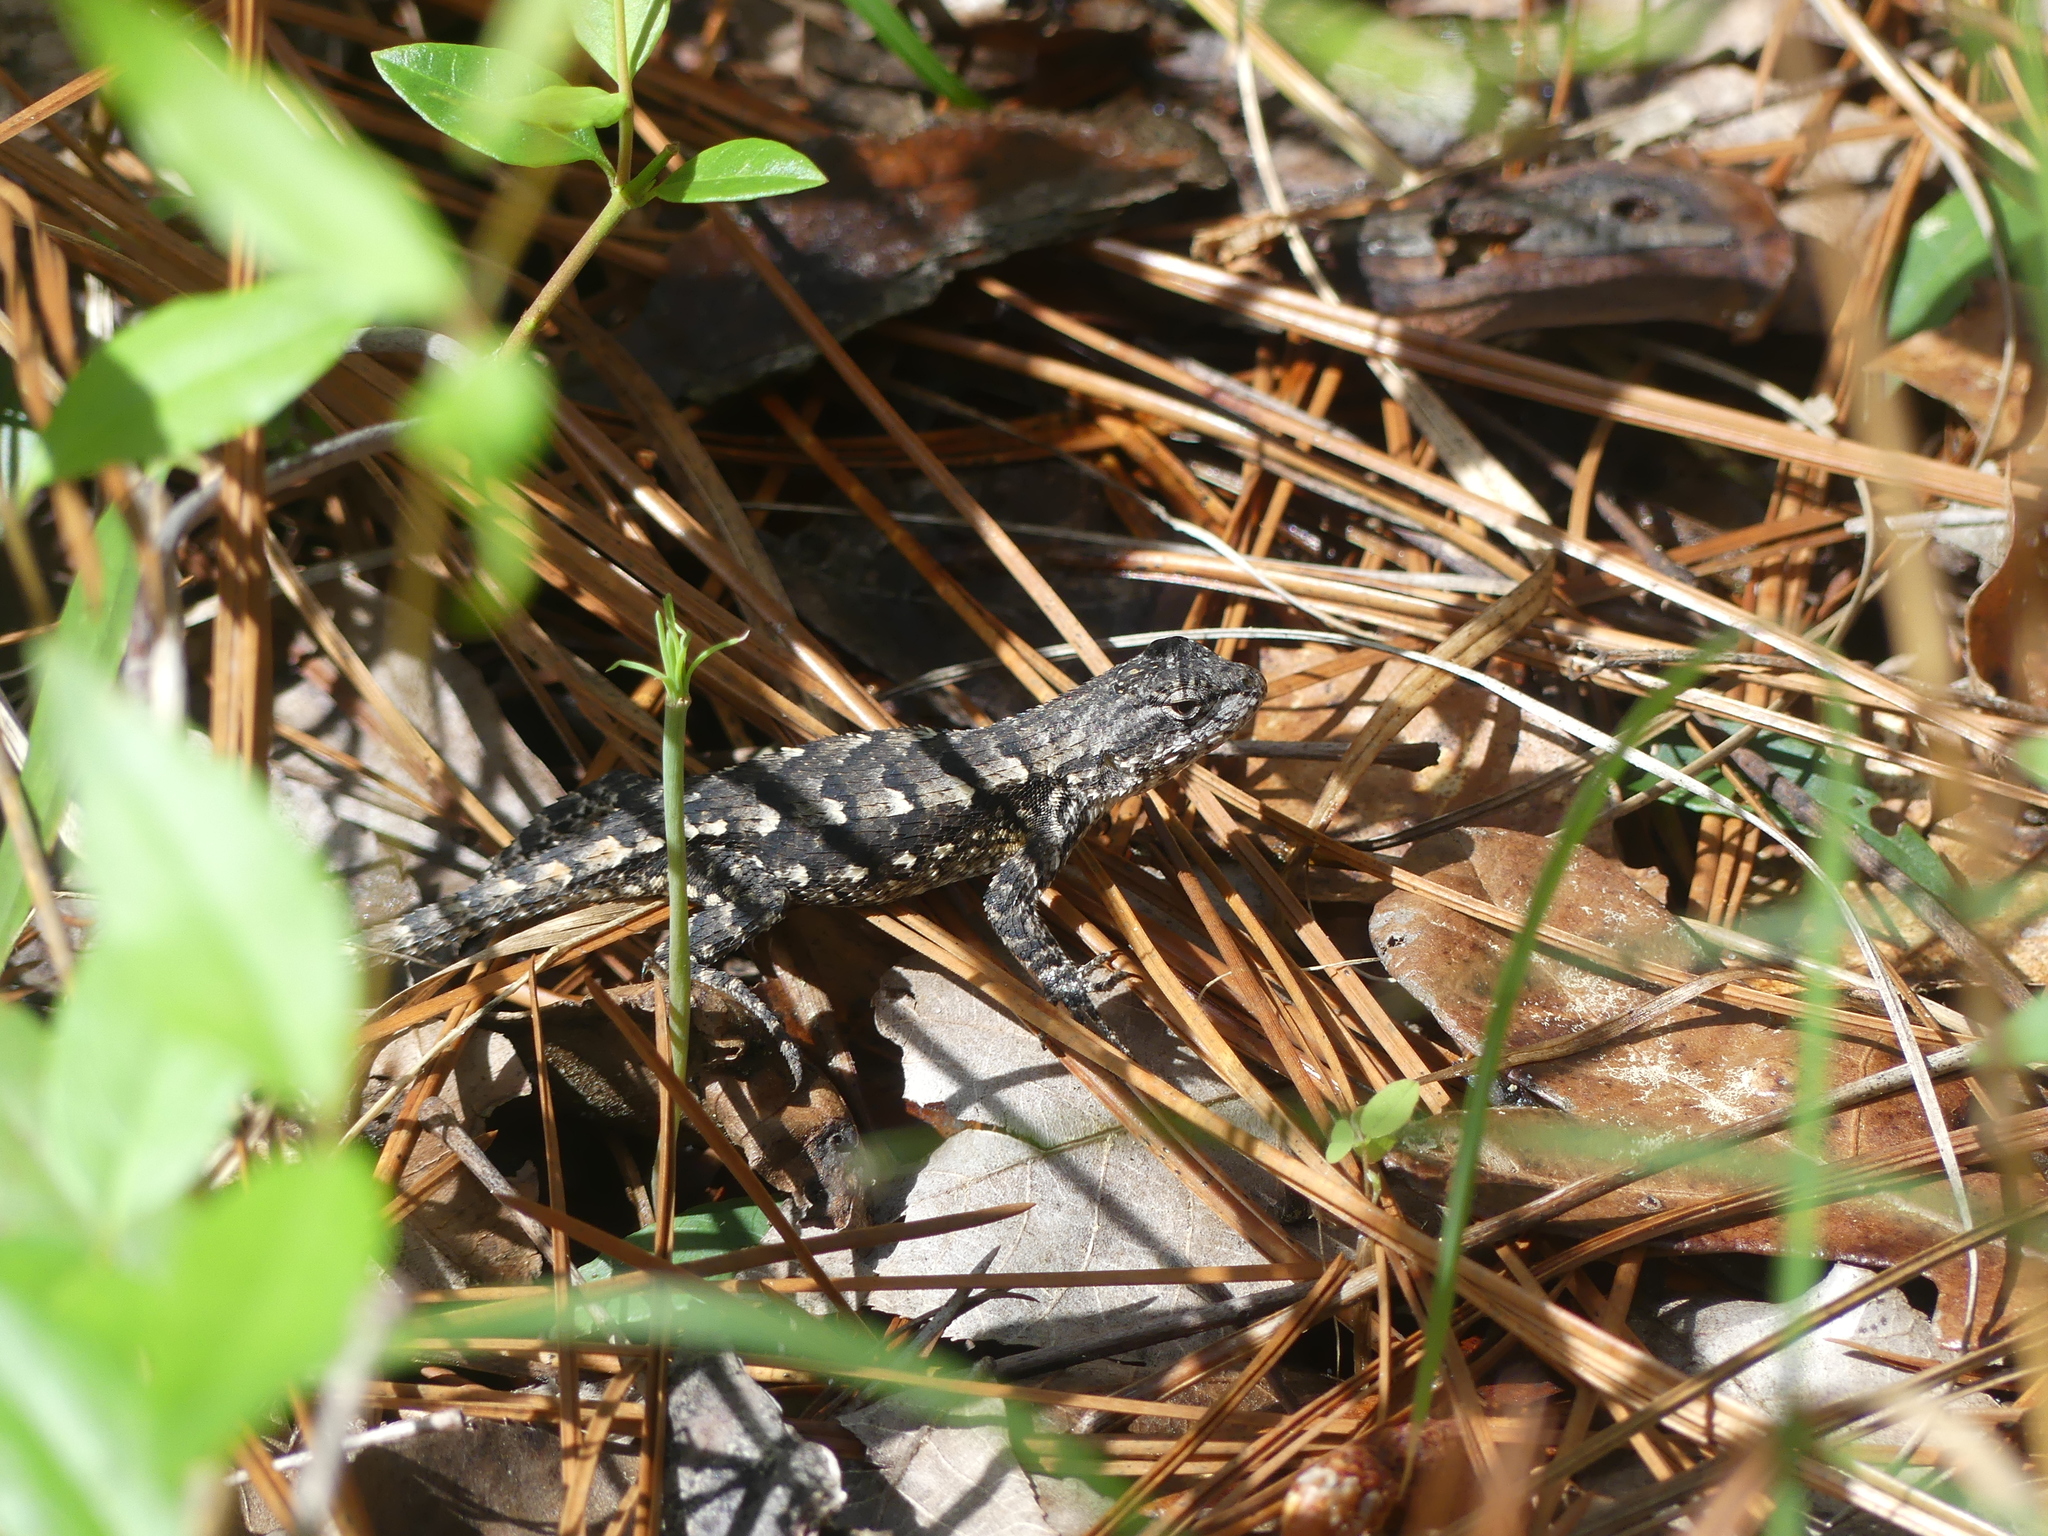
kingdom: Animalia
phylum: Chordata
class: Squamata
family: Phrynosomatidae
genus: Sceloporus
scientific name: Sceloporus consobrinus
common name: Southern prairie lizard
